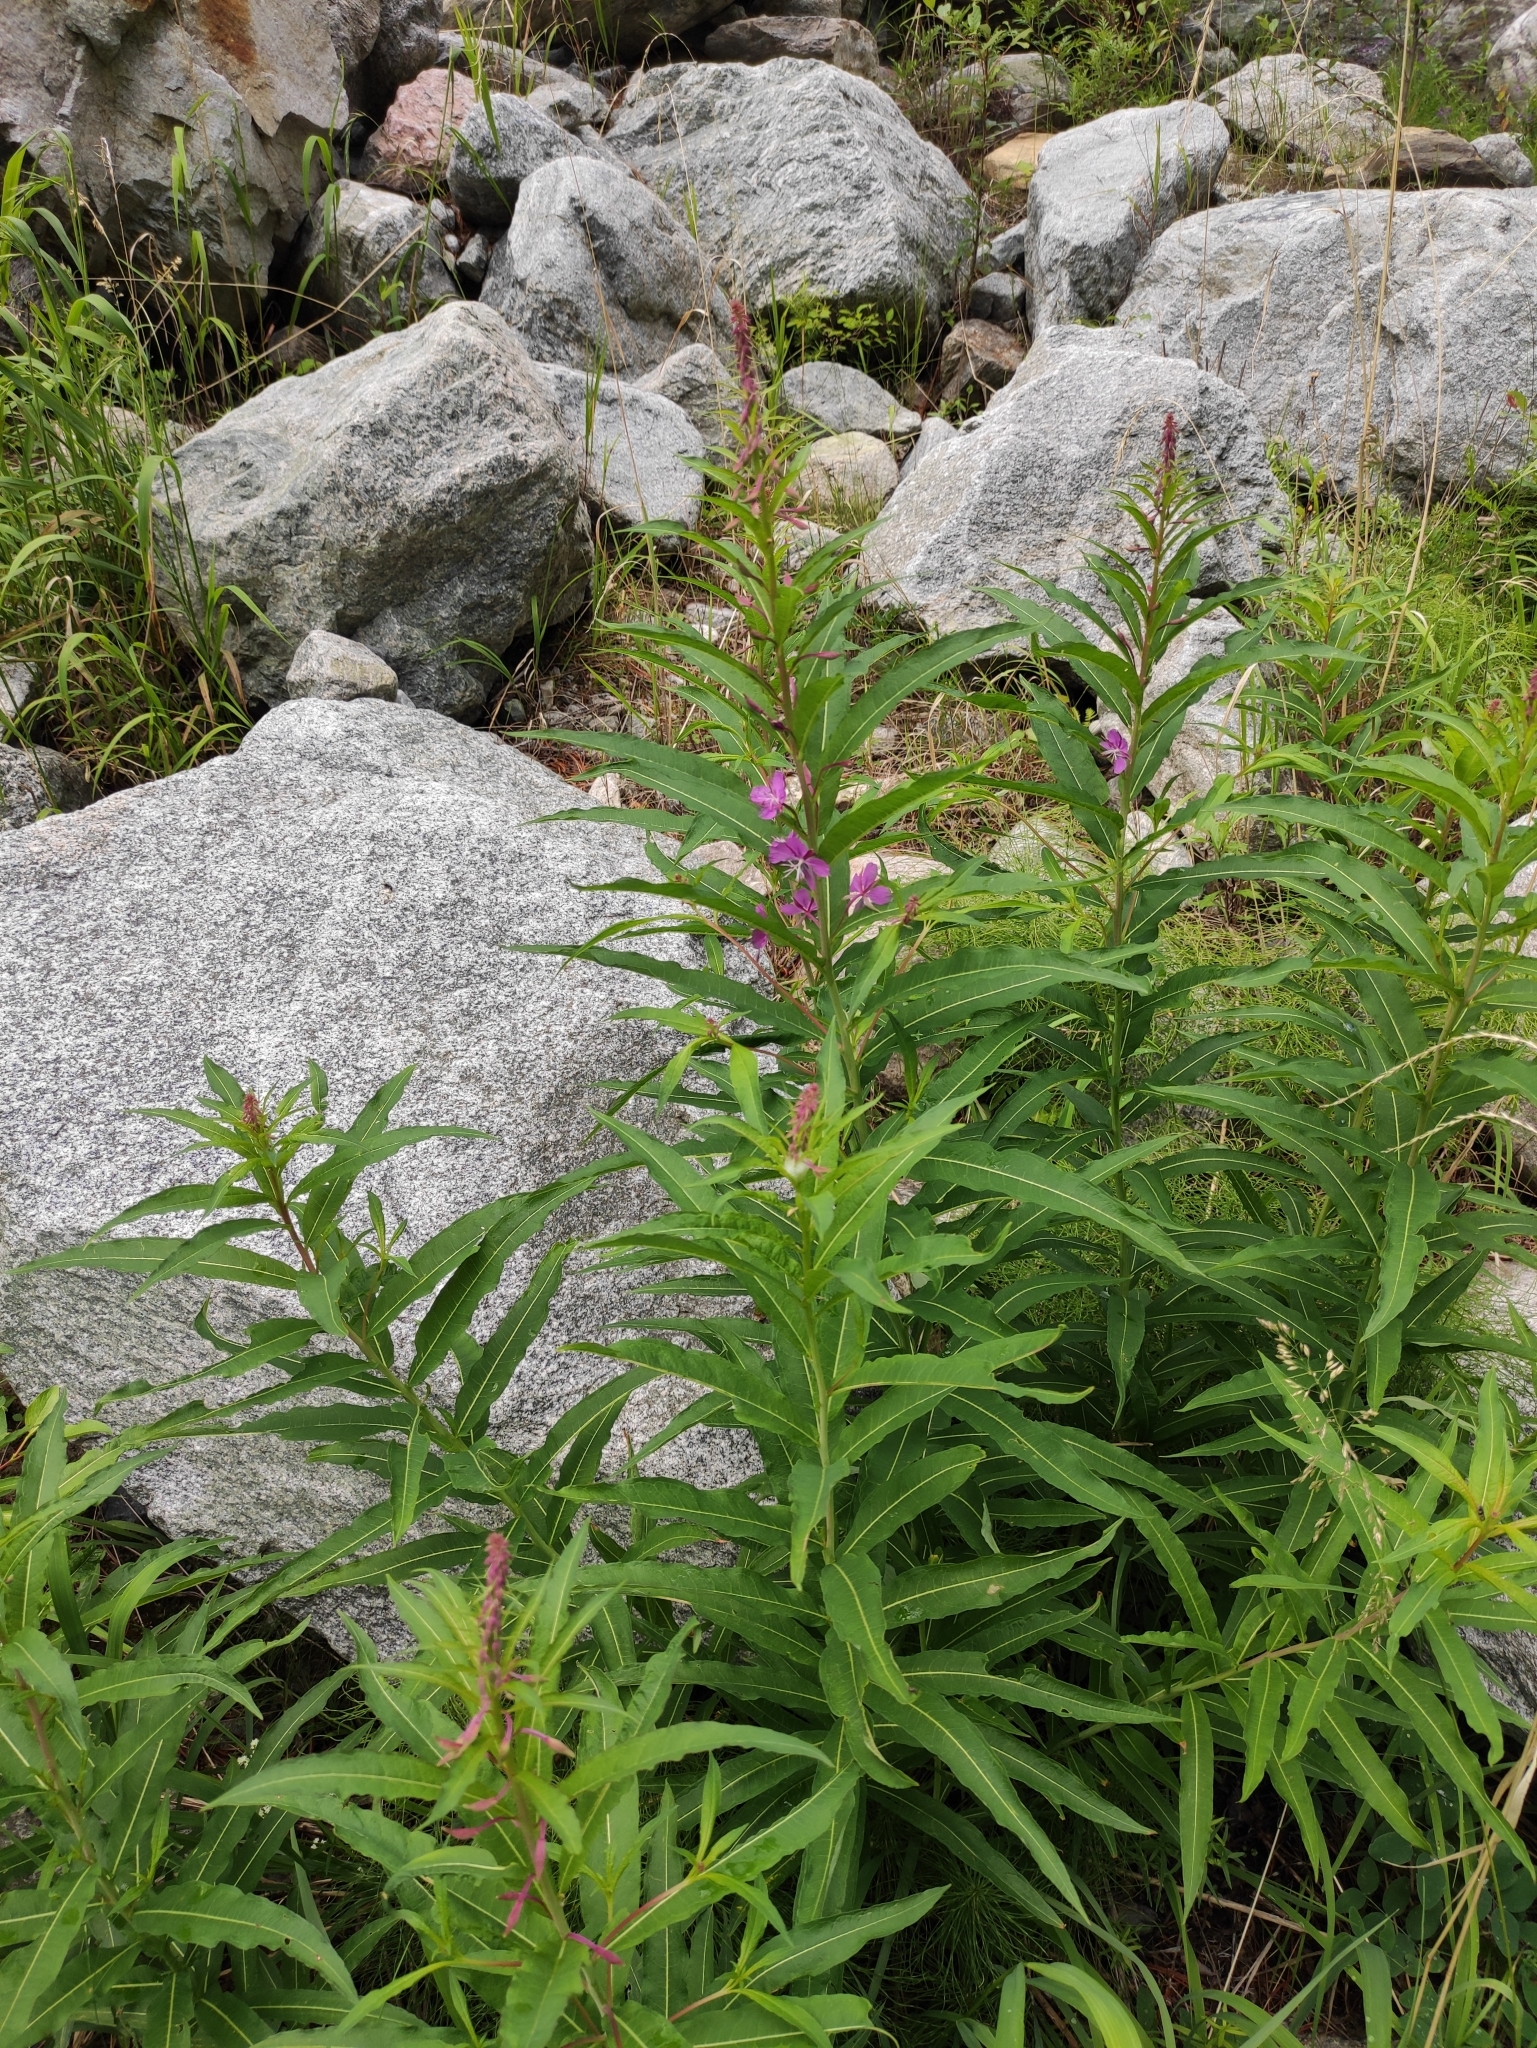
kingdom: Plantae
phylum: Tracheophyta
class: Magnoliopsida
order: Myrtales
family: Onagraceae
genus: Chamaenerion
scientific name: Chamaenerion angustifolium
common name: Fireweed
